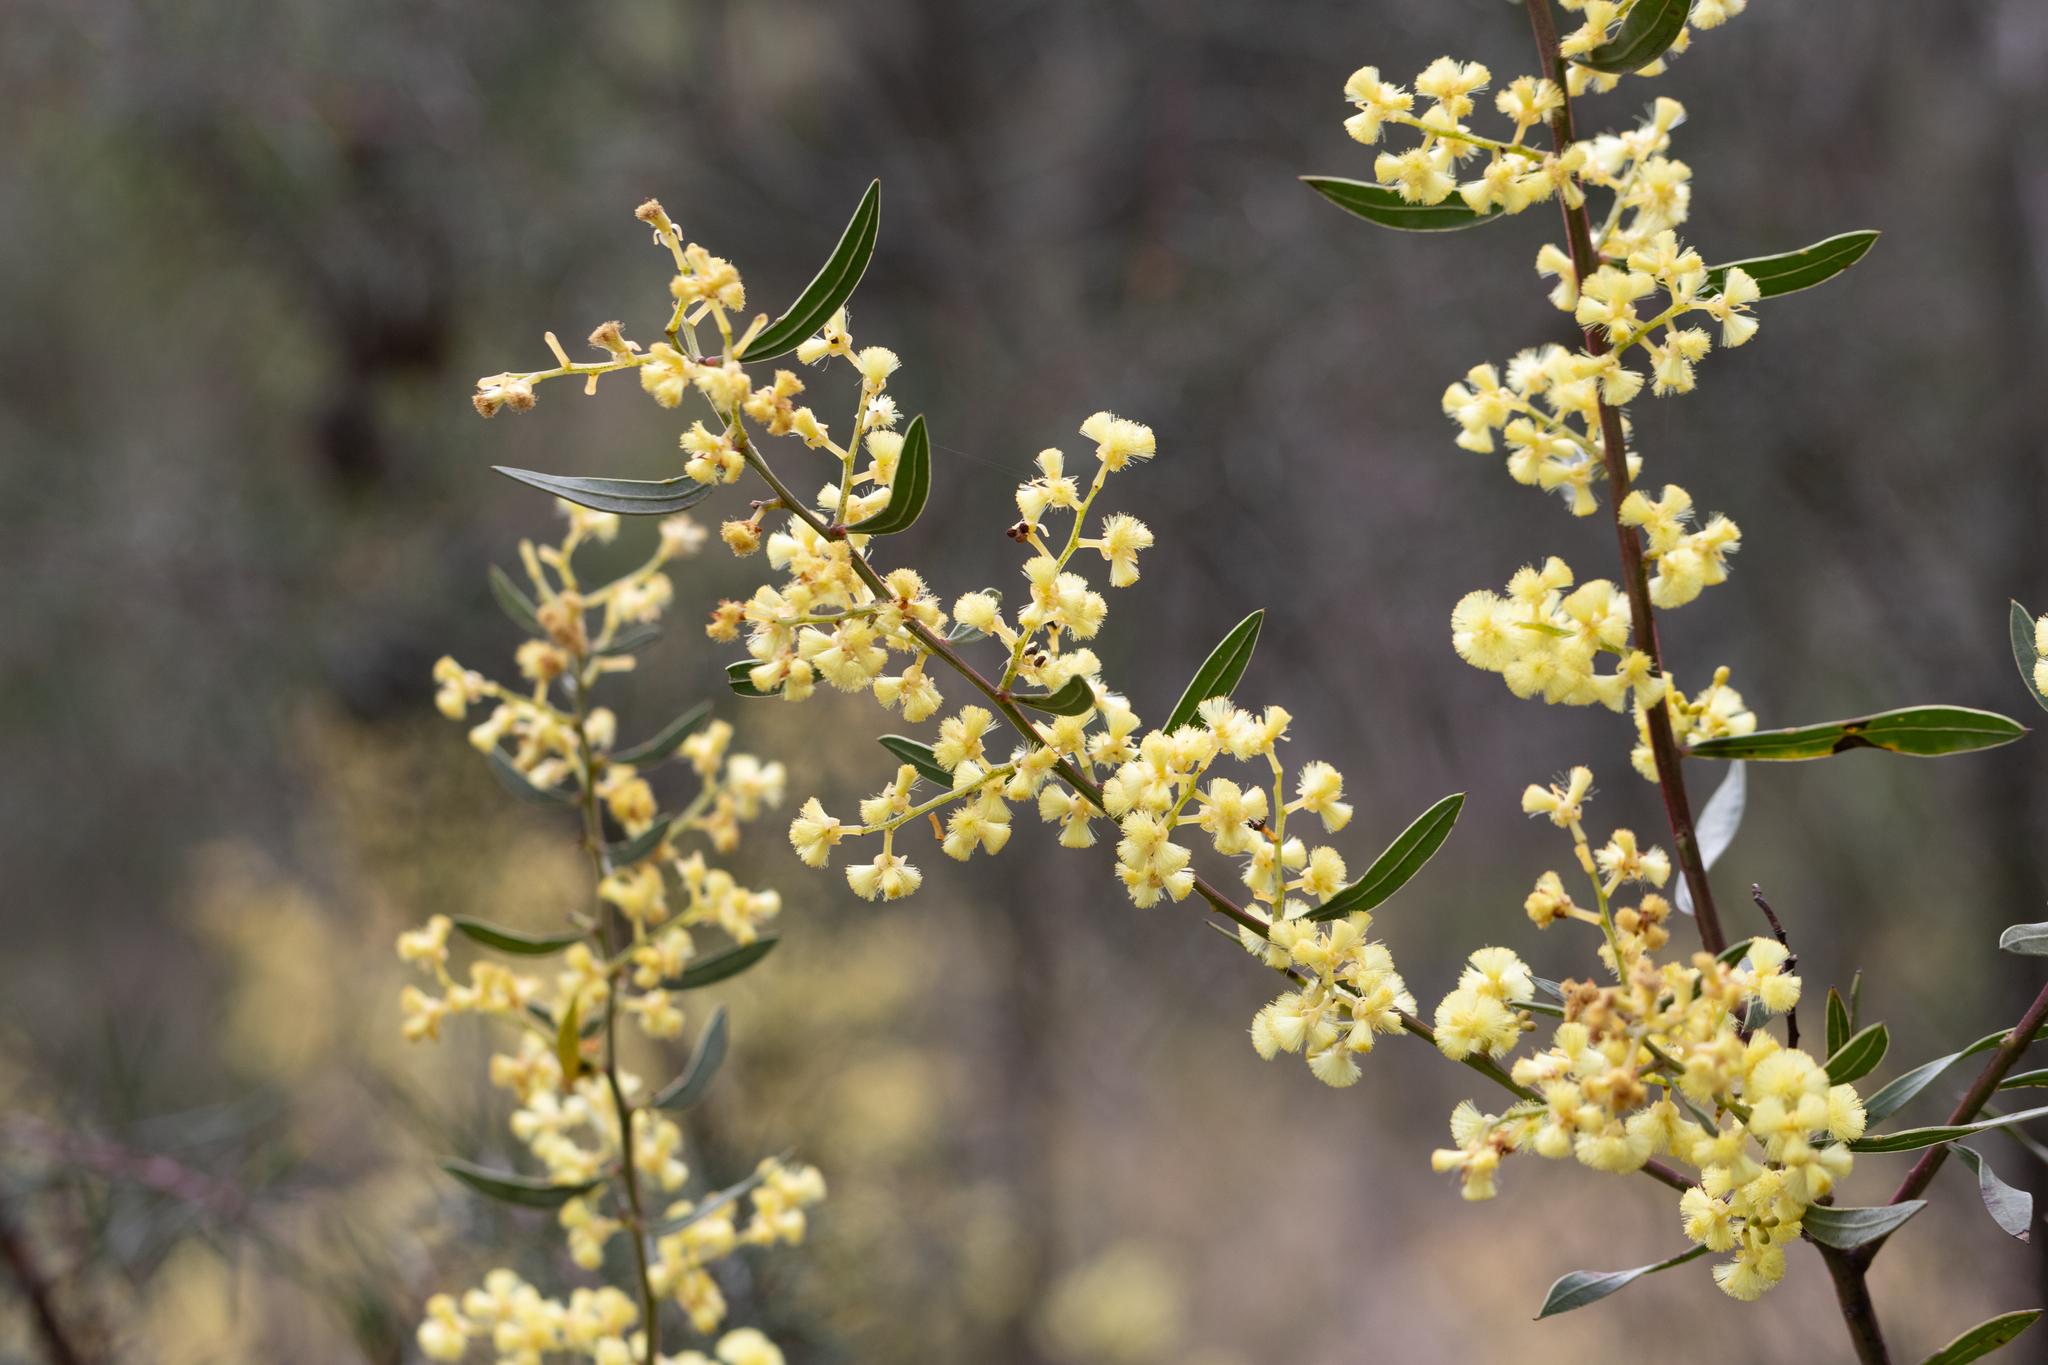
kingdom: Plantae
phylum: Tracheophyta
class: Magnoliopsida
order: Fabales
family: Fabaceae
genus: Acacia
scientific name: Acacia myrtifolia
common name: Myrtle wattle
